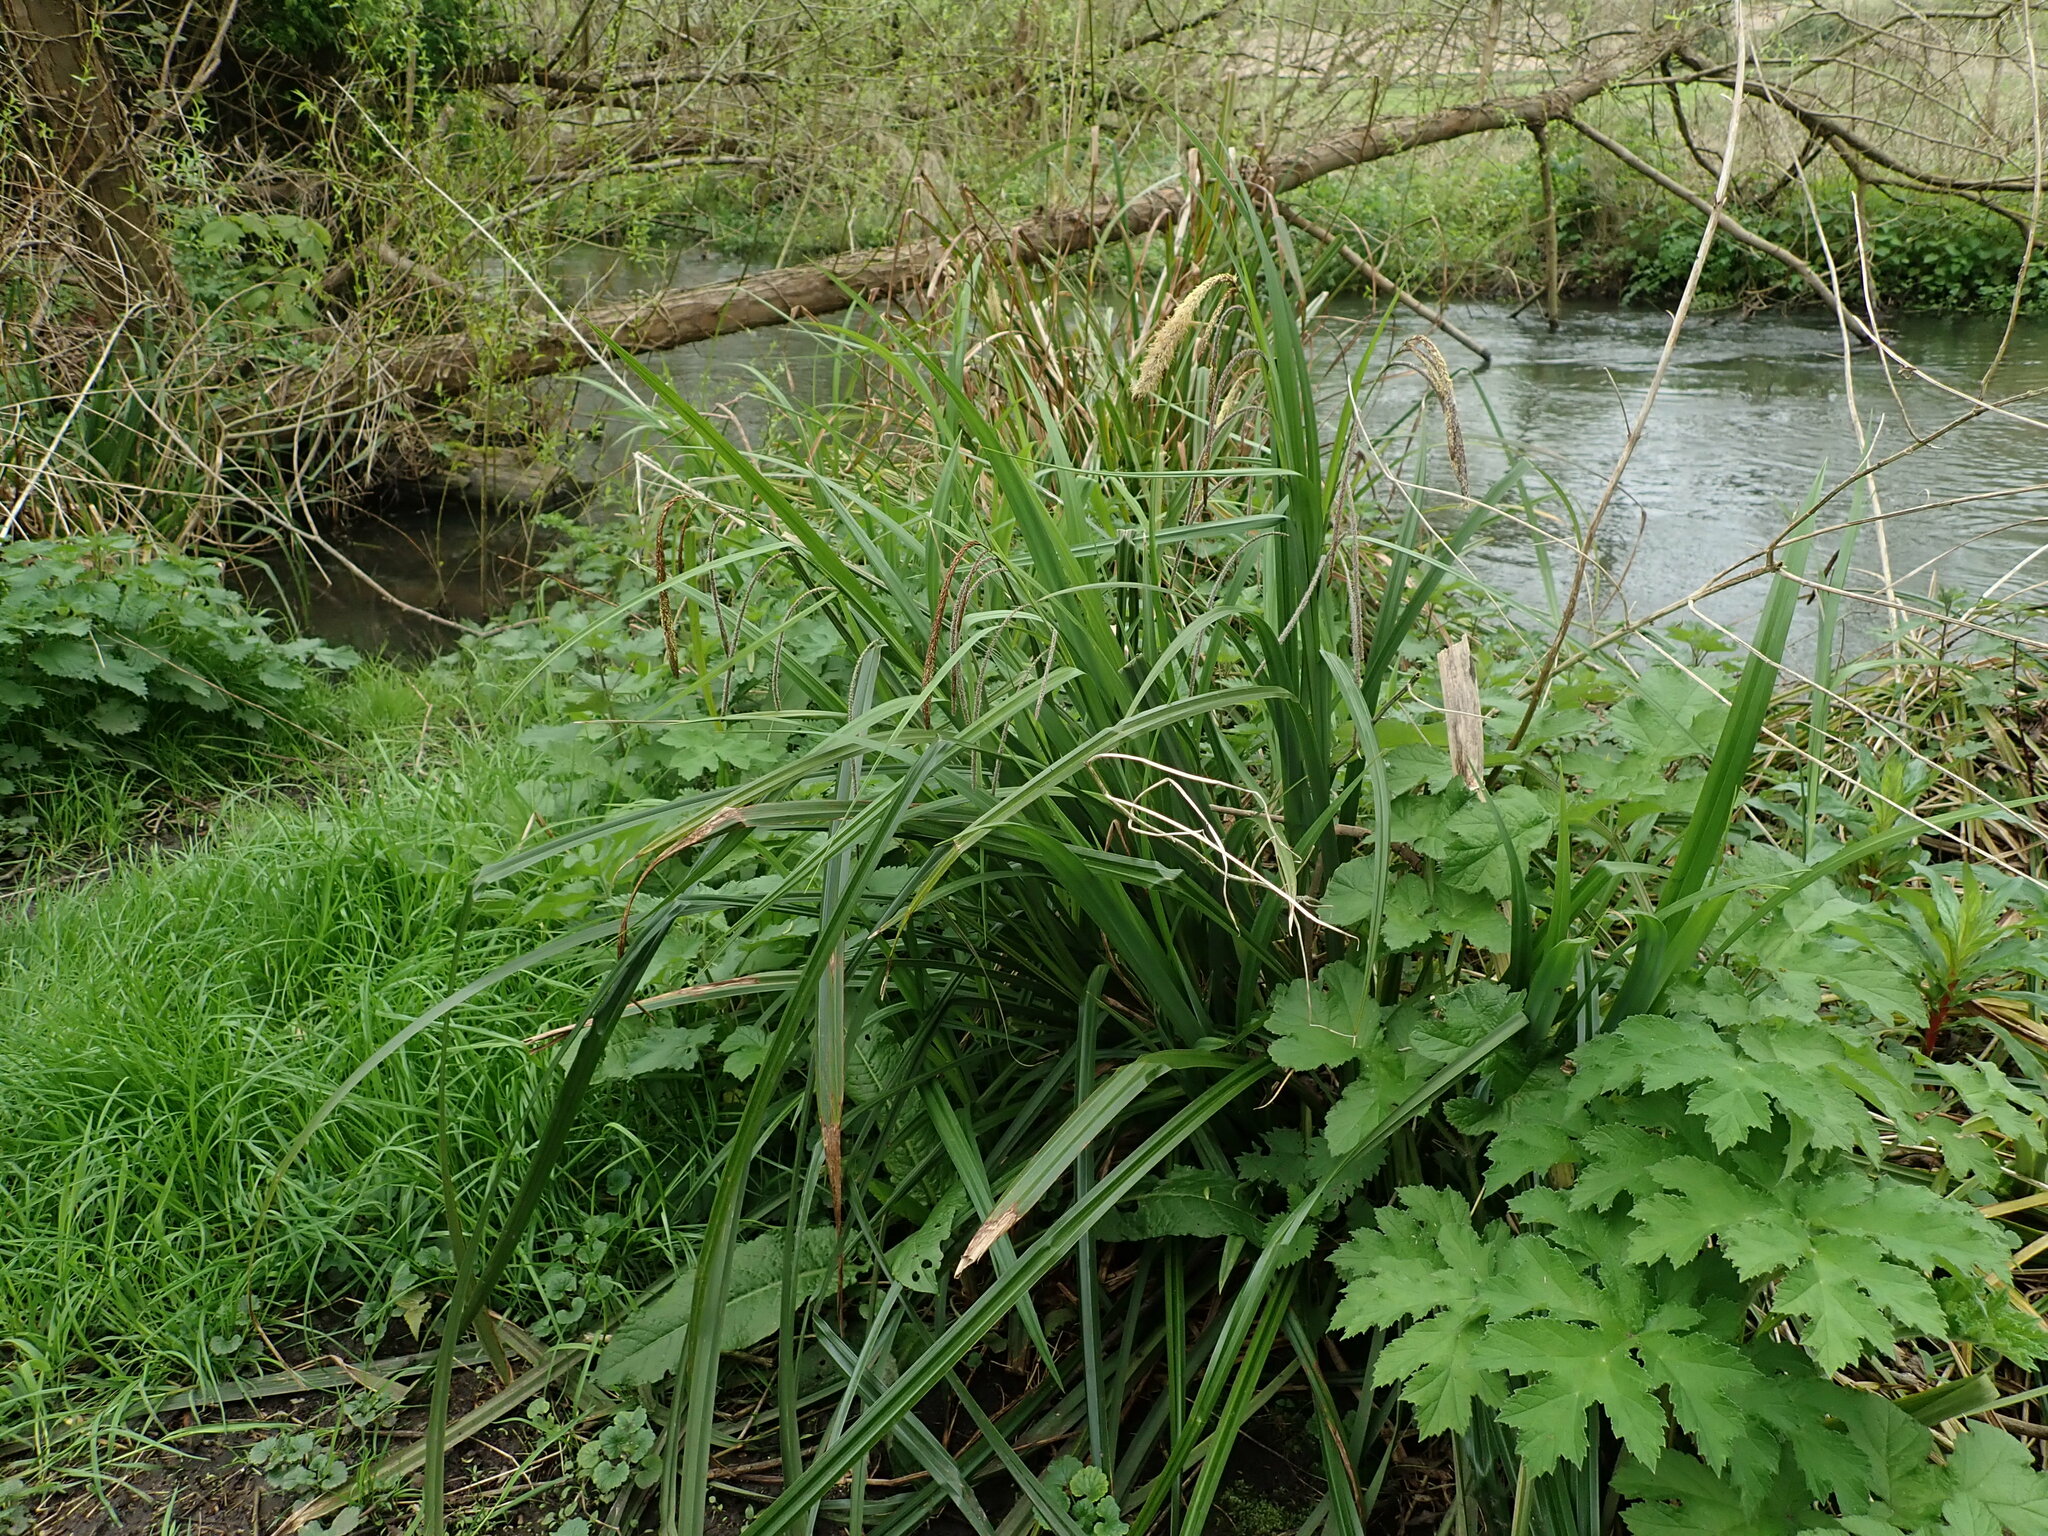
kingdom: Plantae
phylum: Tracheophyta
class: Liliopsida
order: Poales
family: Cyperaceae
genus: Carex
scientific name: Carex pendula
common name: Pendulous sedge
